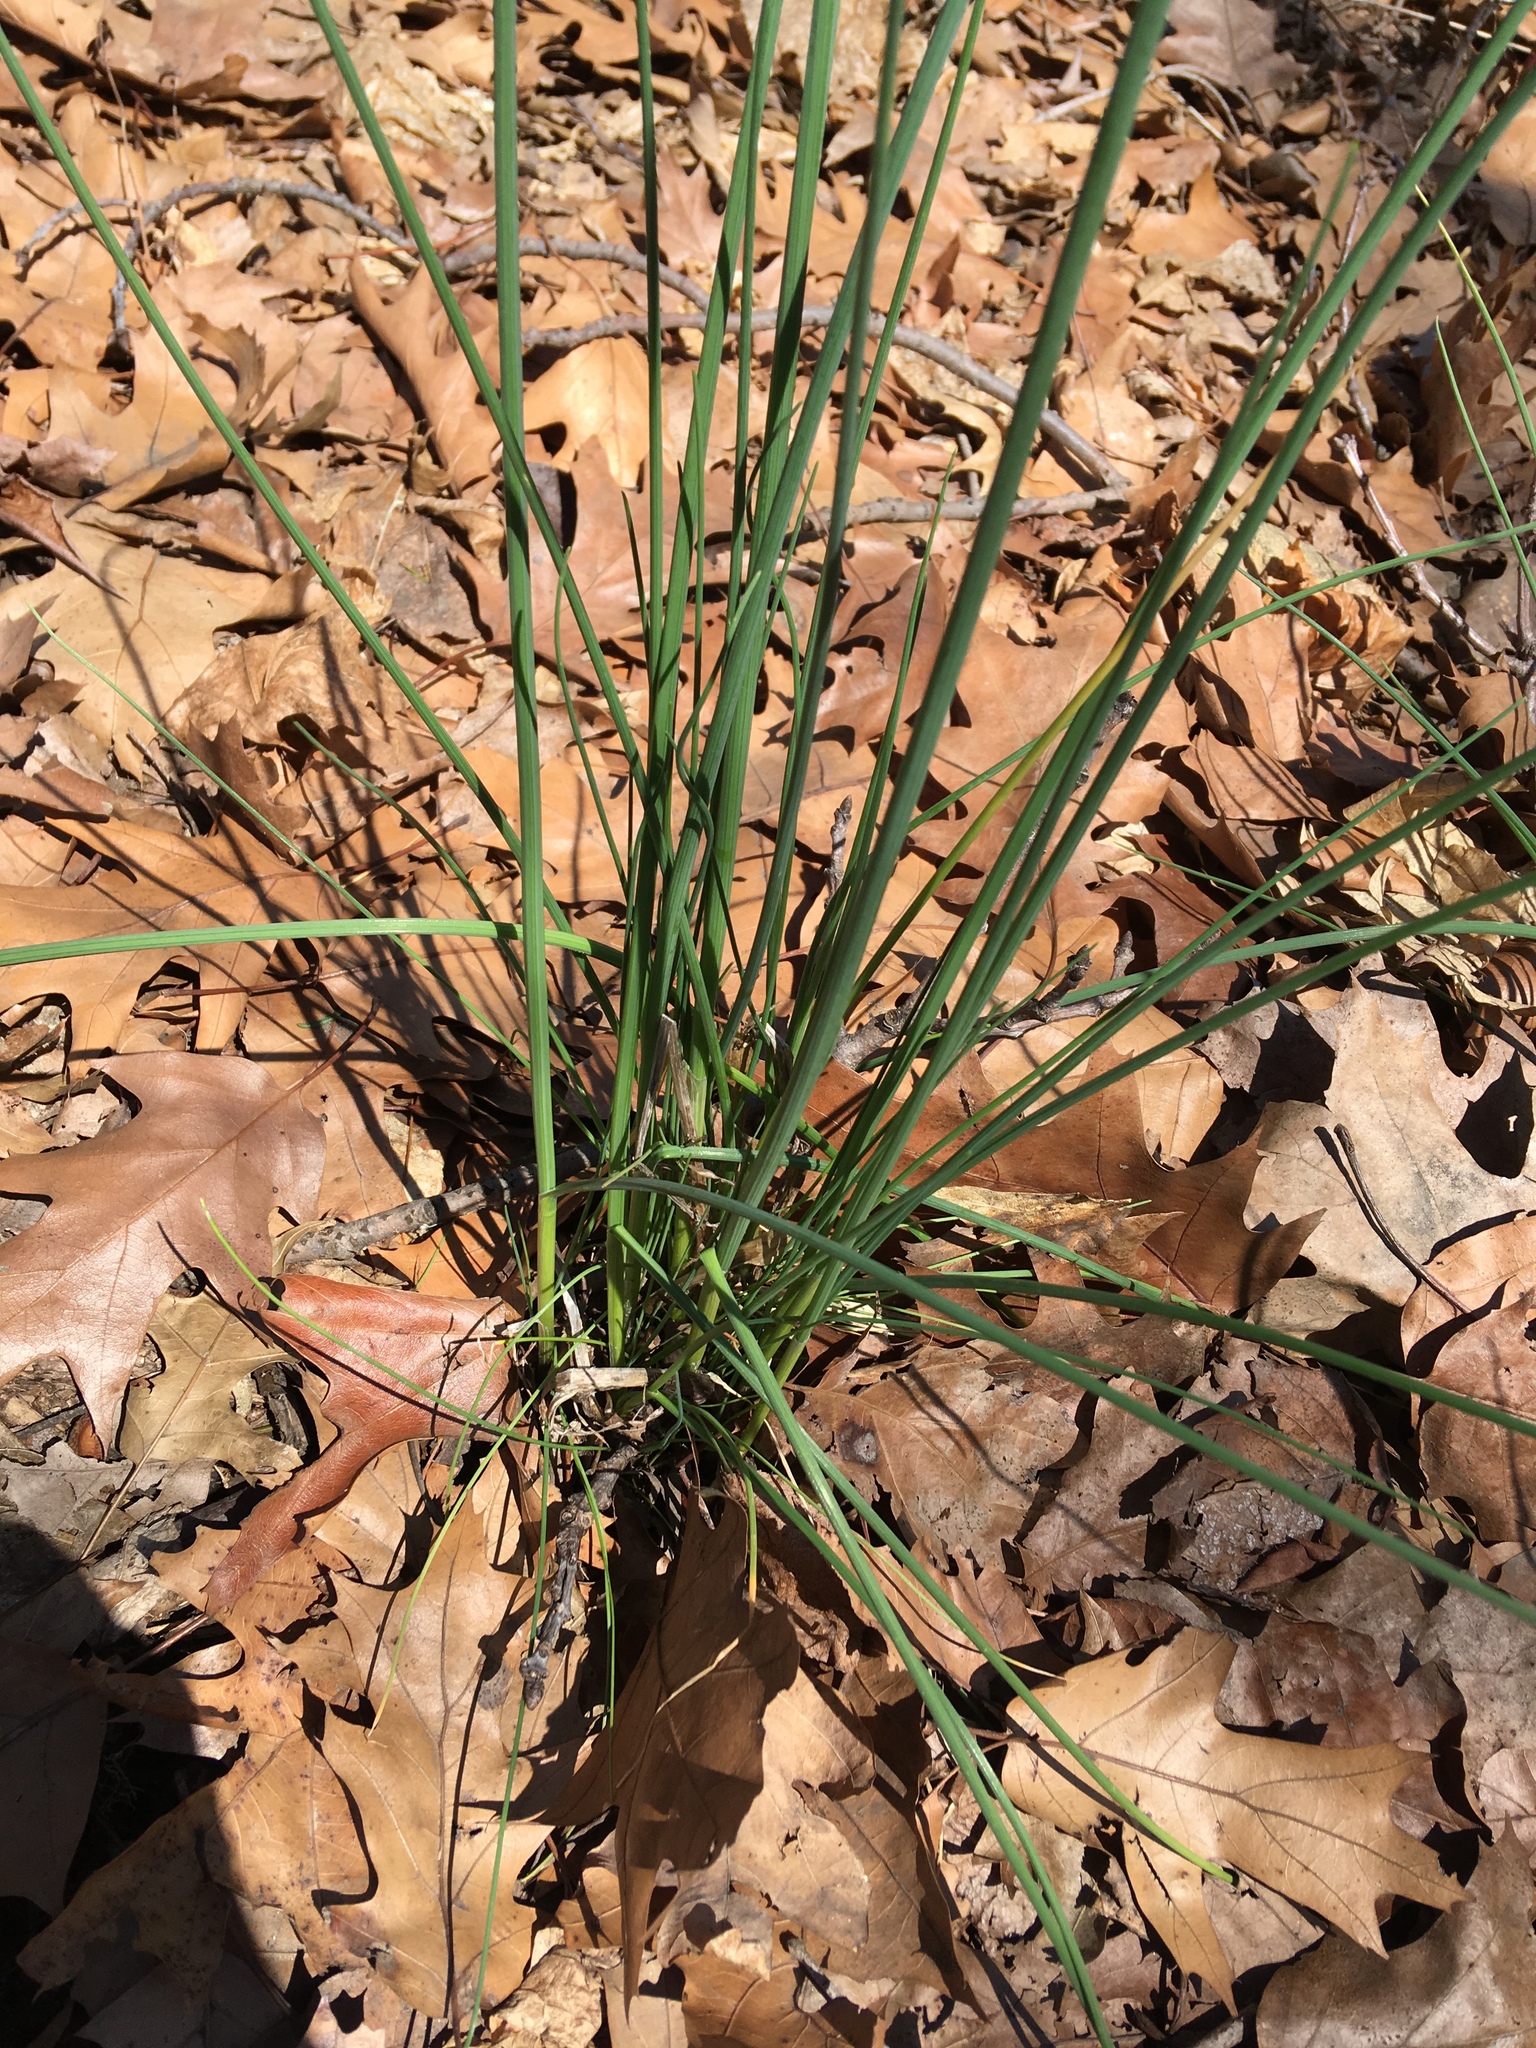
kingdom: Plantae
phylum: Tracheophyta
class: Liliopsida
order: Asparagales
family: Amaryllidaceae
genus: Allium
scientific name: Allium vineale
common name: Crow garlic
